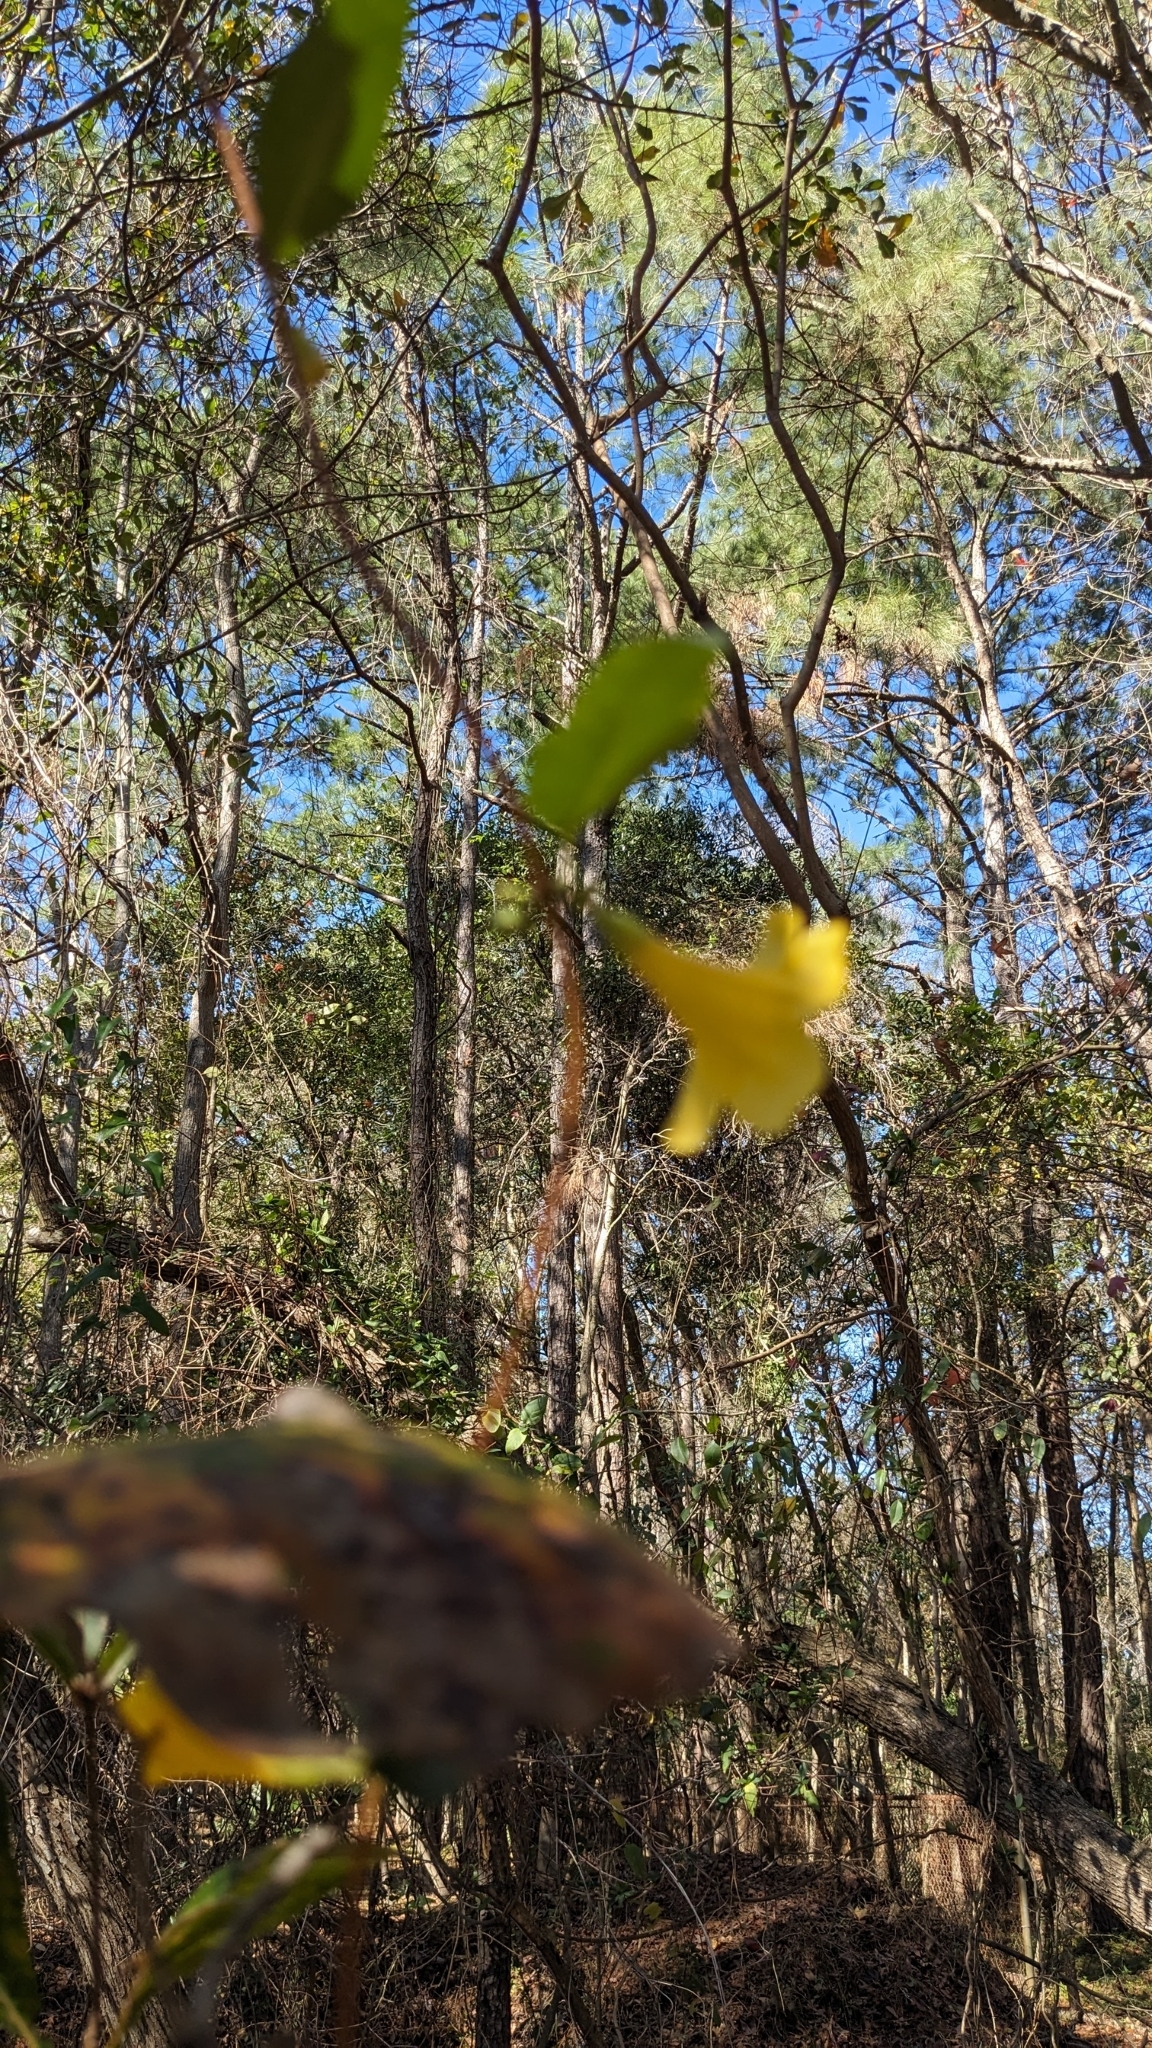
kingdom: Plantae
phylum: Tracheophyta
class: Magnoliopsida
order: Gentianales
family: Gelsemiaceae
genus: Gelsemium
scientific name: Gelsemium sempervirens
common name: Carolina-jasmine
